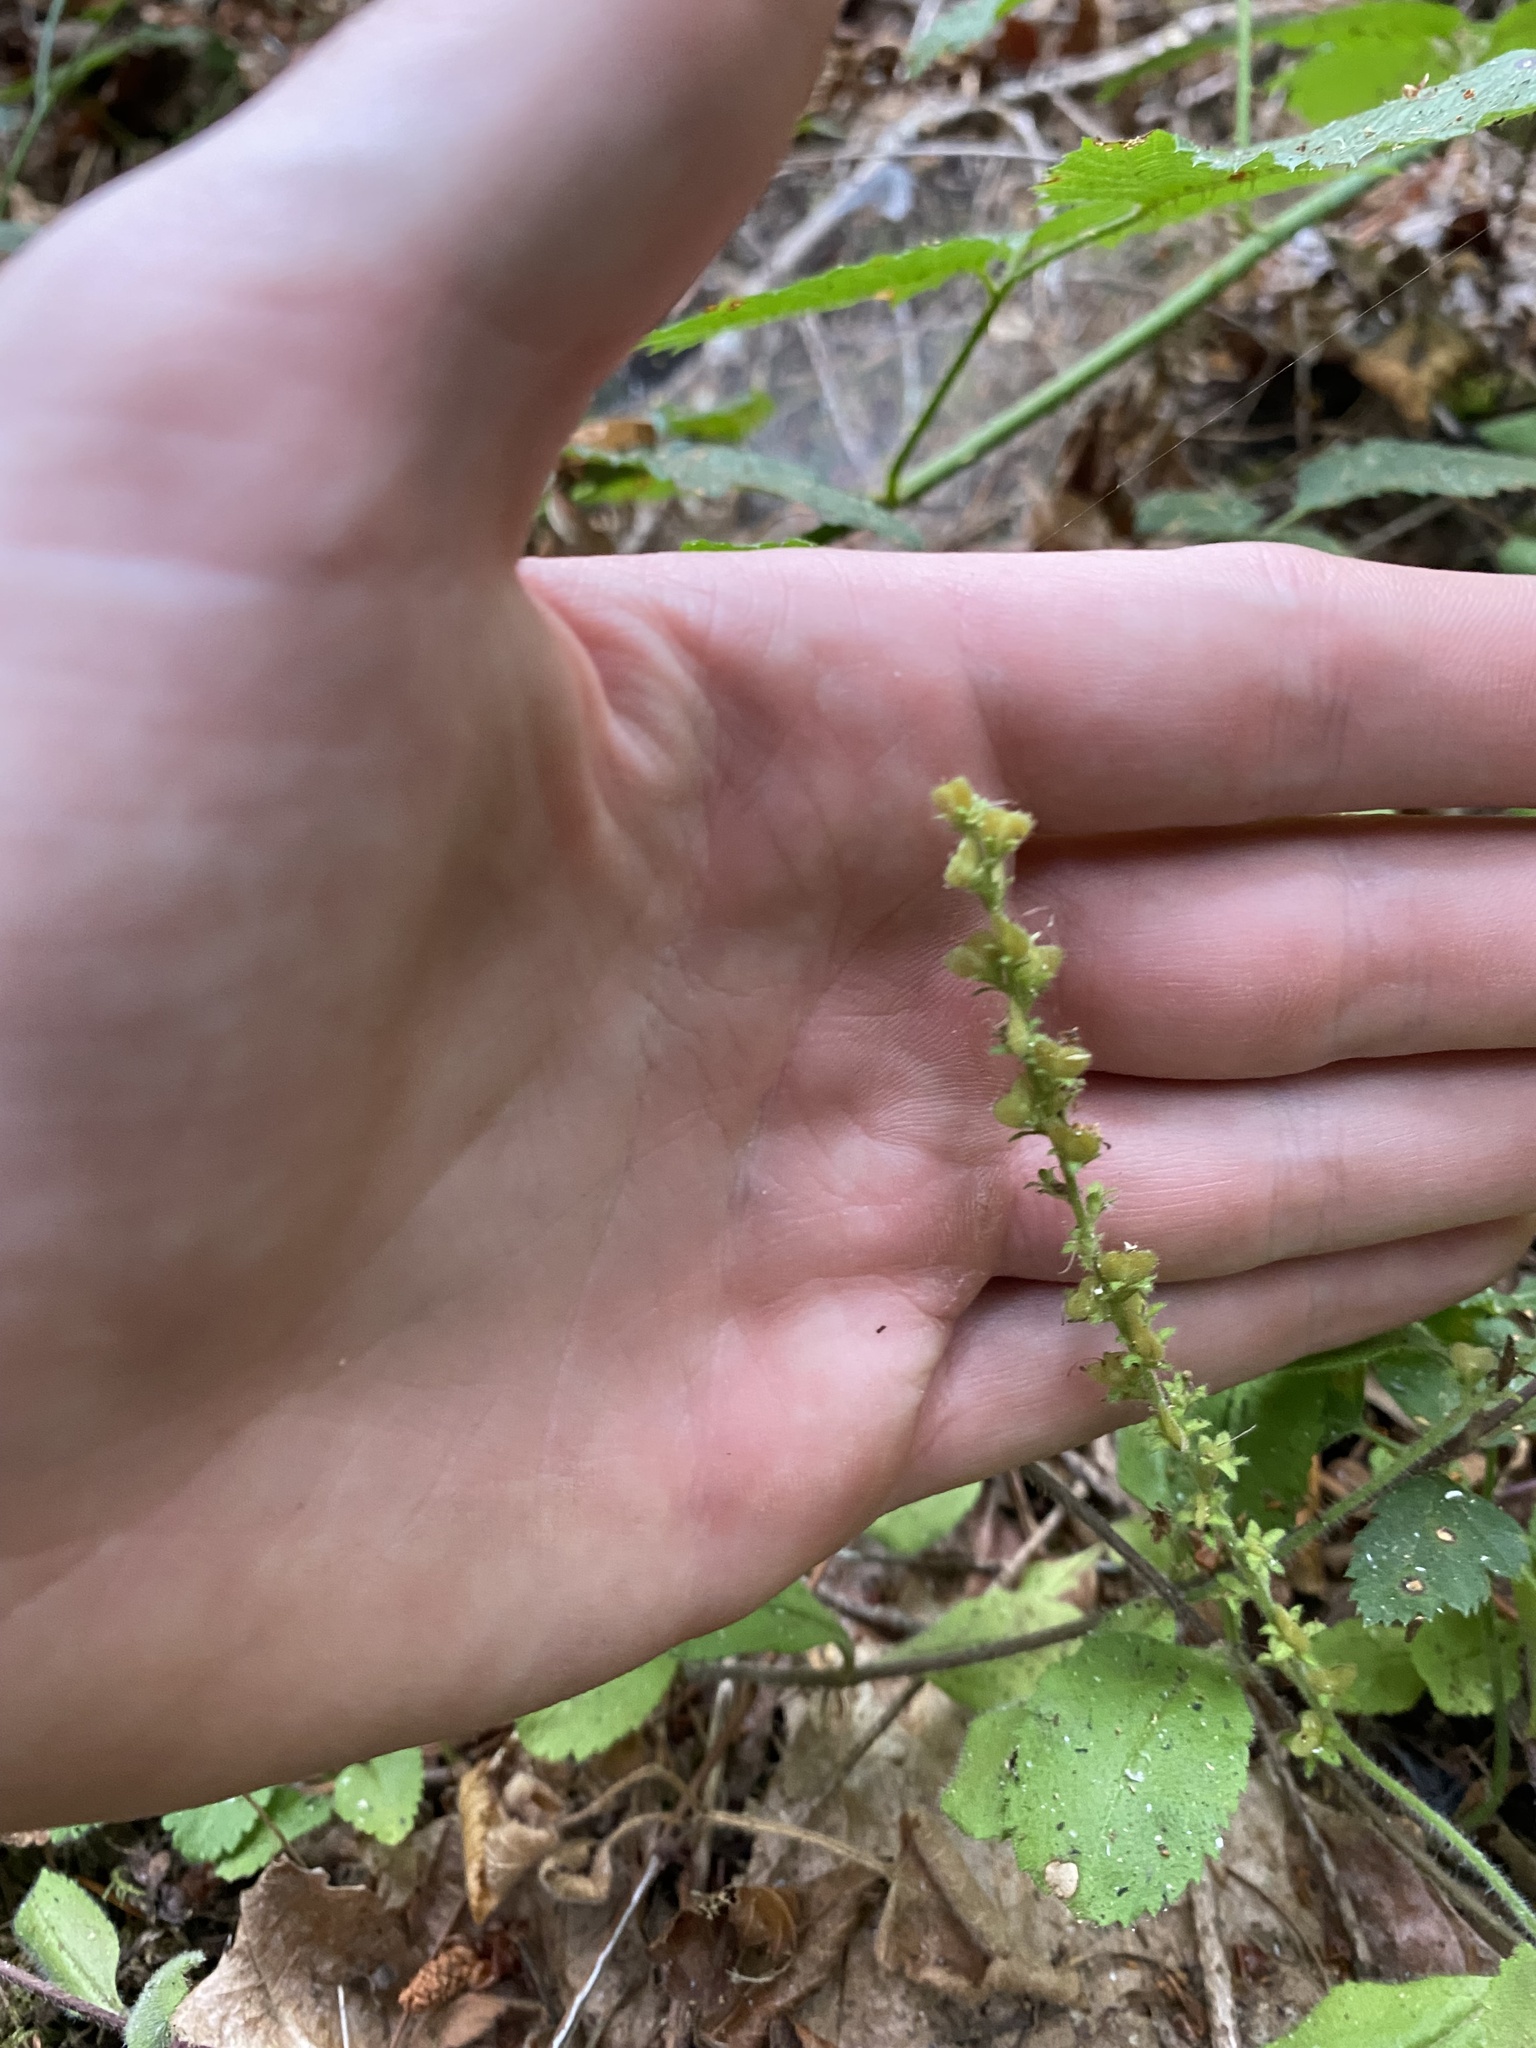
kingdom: Plantae
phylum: Tracheophyta
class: Magnoliopsida
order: Lamiales
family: Plantaginaceae
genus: Veronica
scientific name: Veronica officinalis
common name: Common speedwell
